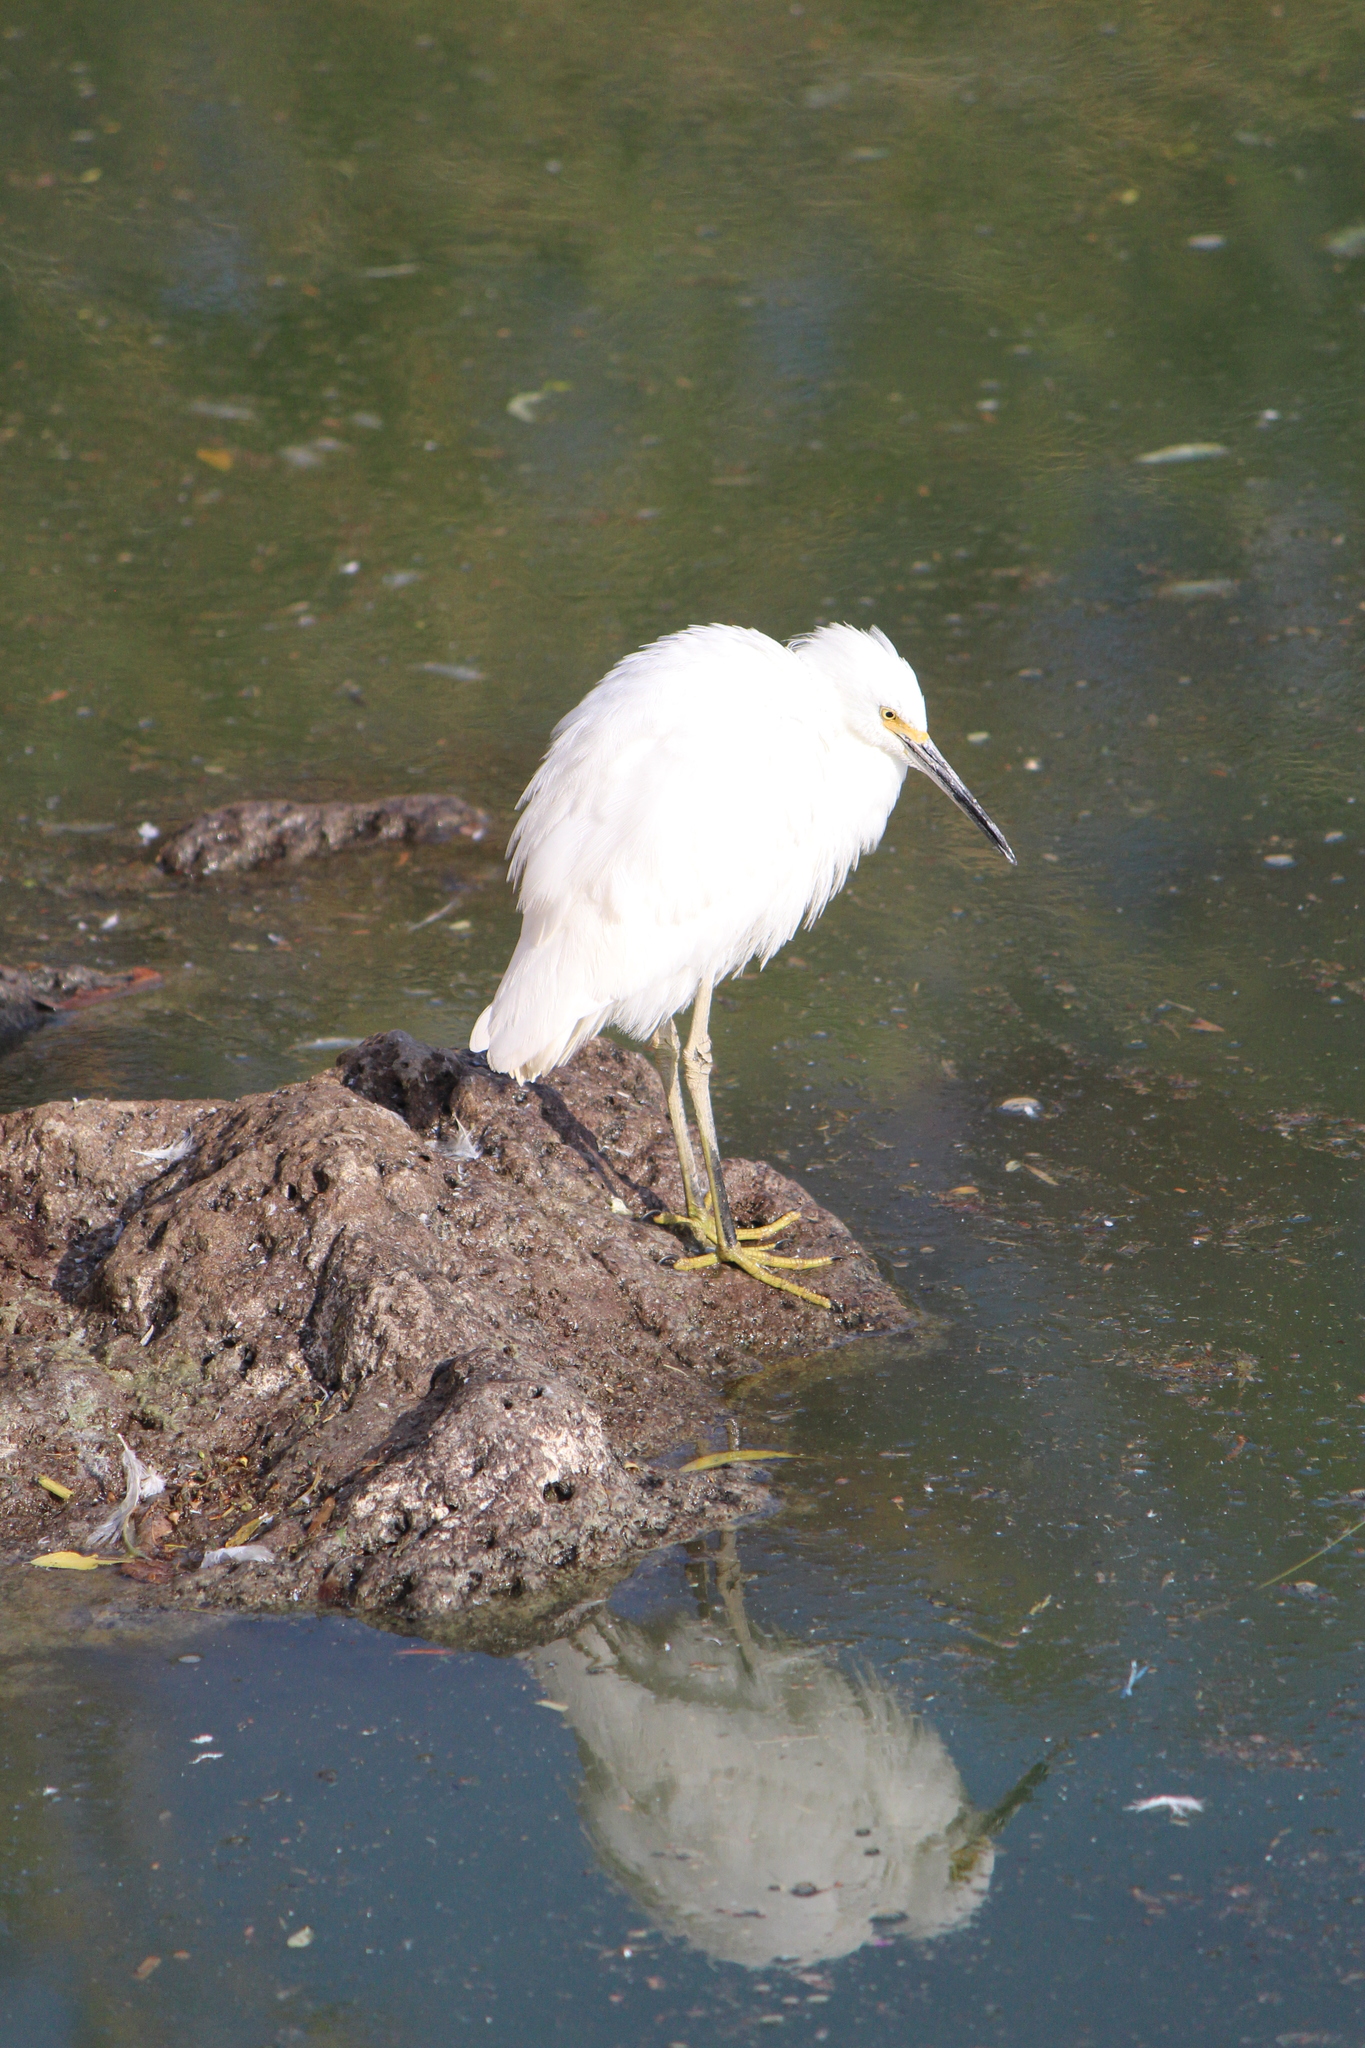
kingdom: Animalia
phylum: Chordata
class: Aves
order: Pelecaniformes
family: Ardeidae
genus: Egretta
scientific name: Egretta thula
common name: Snowy egret
